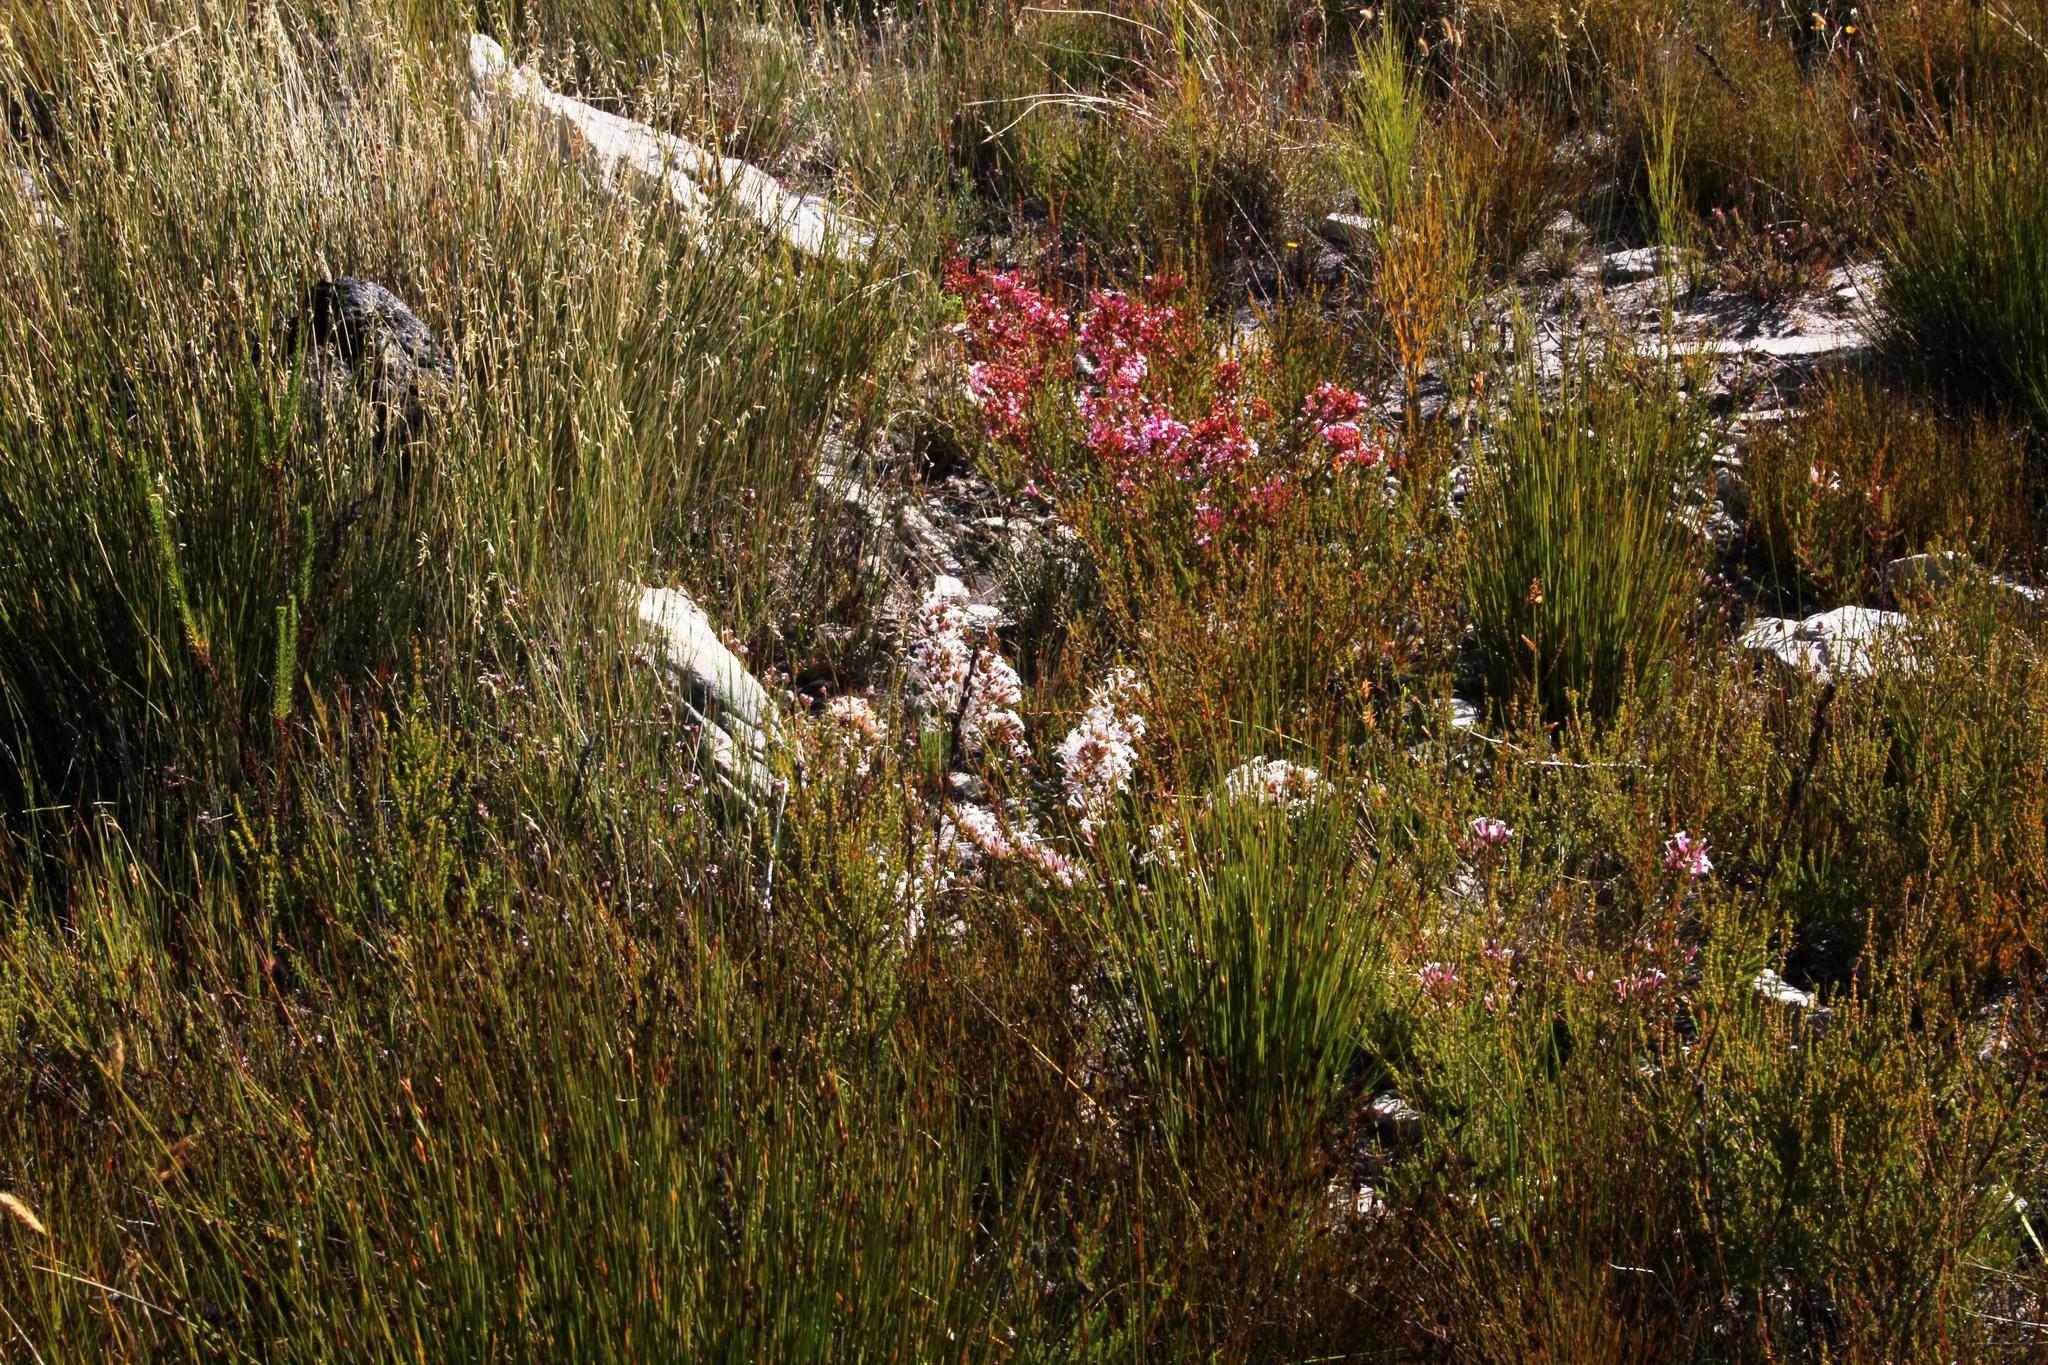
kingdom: Plantae
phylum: Tracheophyta
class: Magnoliopsida
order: Ericales
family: Ericaceae
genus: Erica
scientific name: Erica infundibuliformis
